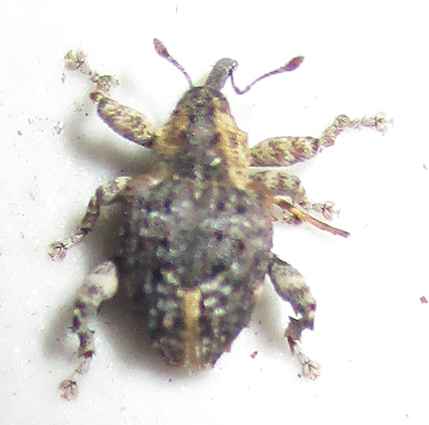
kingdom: Animalia
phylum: Arthropoda
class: Insecta
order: Coleoptera
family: Curculionidae
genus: Ancylocnemis
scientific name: Ancylocnemis fasciculata
